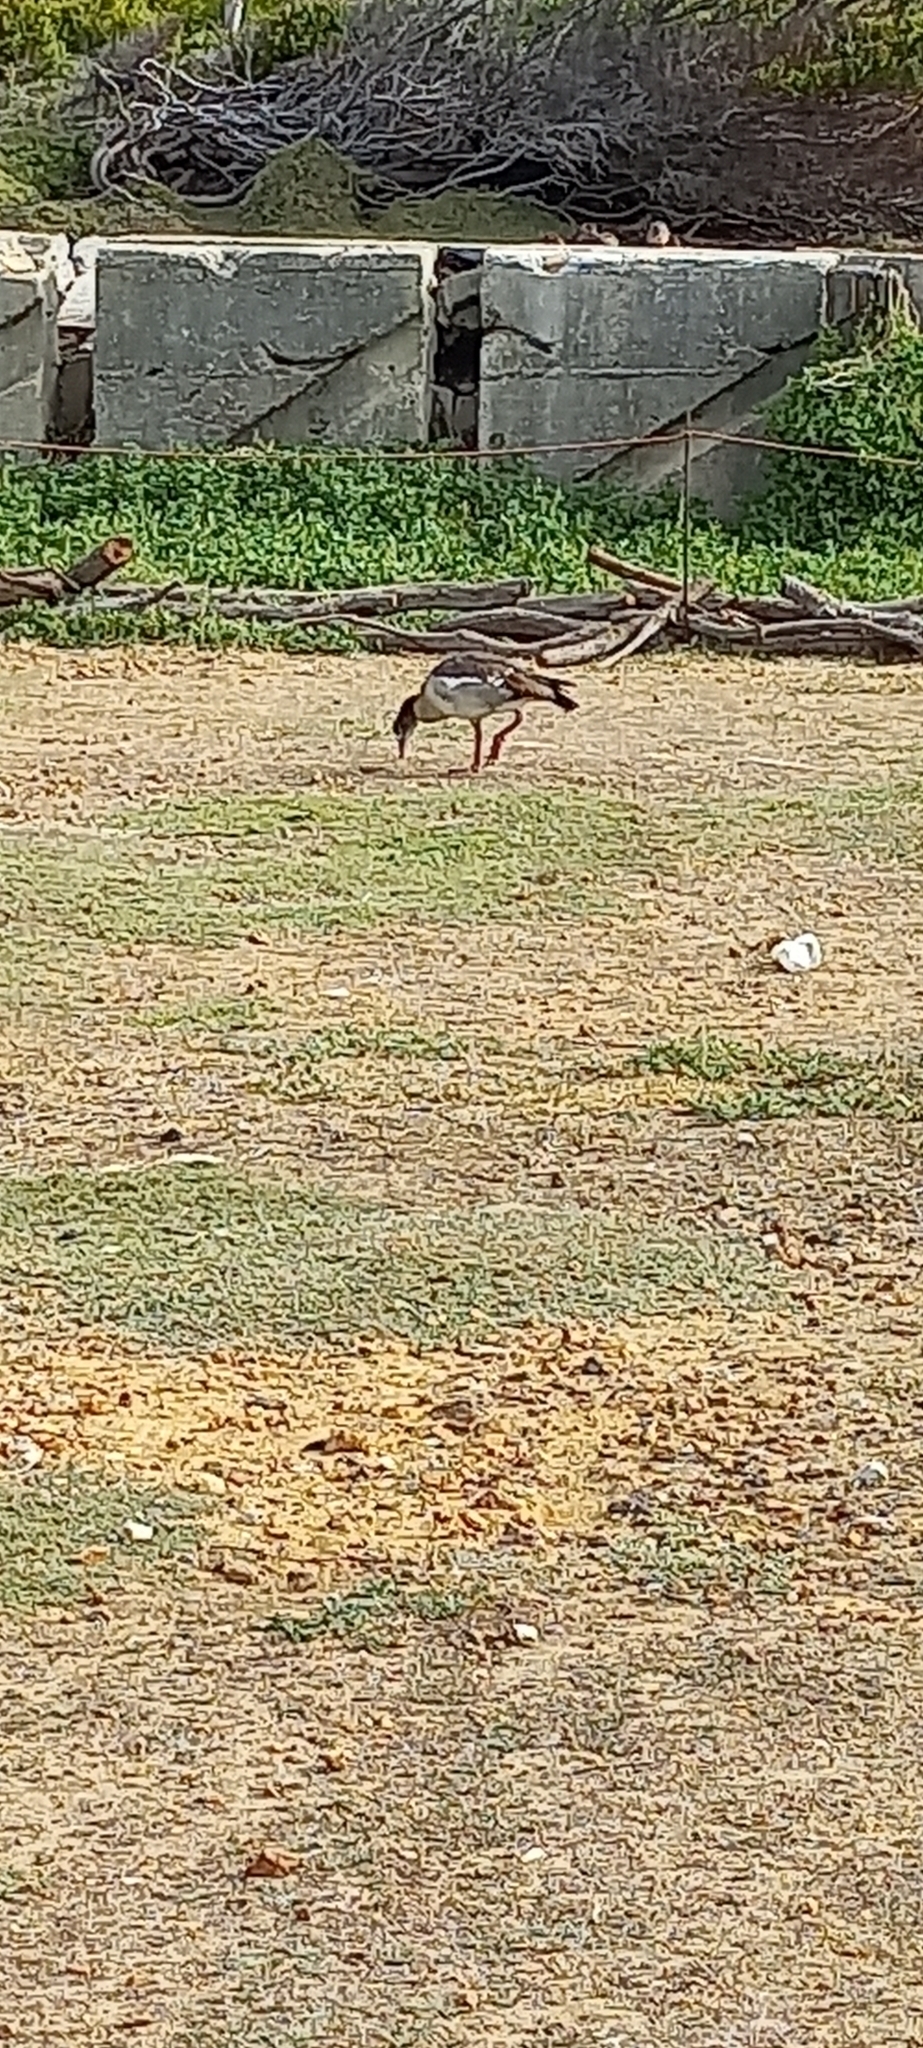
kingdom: Animalia
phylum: Chordata
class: Aves
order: Anseriformes
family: Anatidae
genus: Alopochen
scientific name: Alopochen aegyptiaca
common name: Egyptian goose
